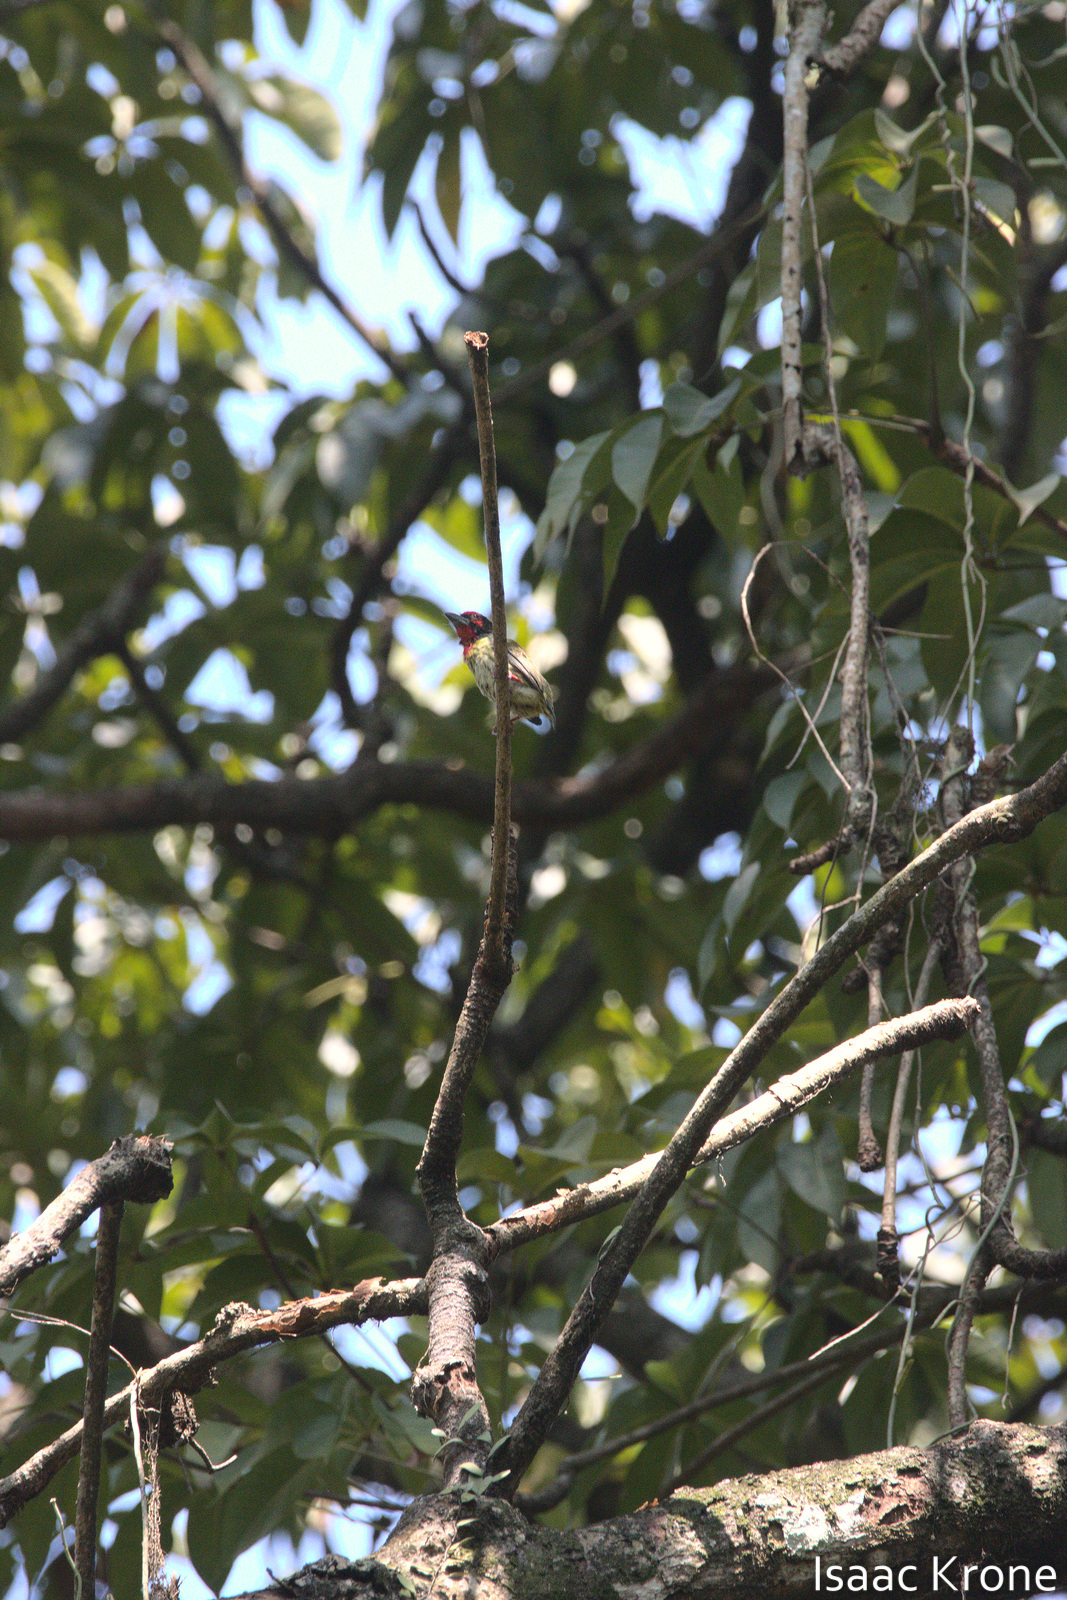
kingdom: Animalia
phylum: Chordata
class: Aves
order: Piciformes
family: Megalaimidae
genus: Psilopogon
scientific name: Psilopogon haemacephalus
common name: Coppersmith barbet
